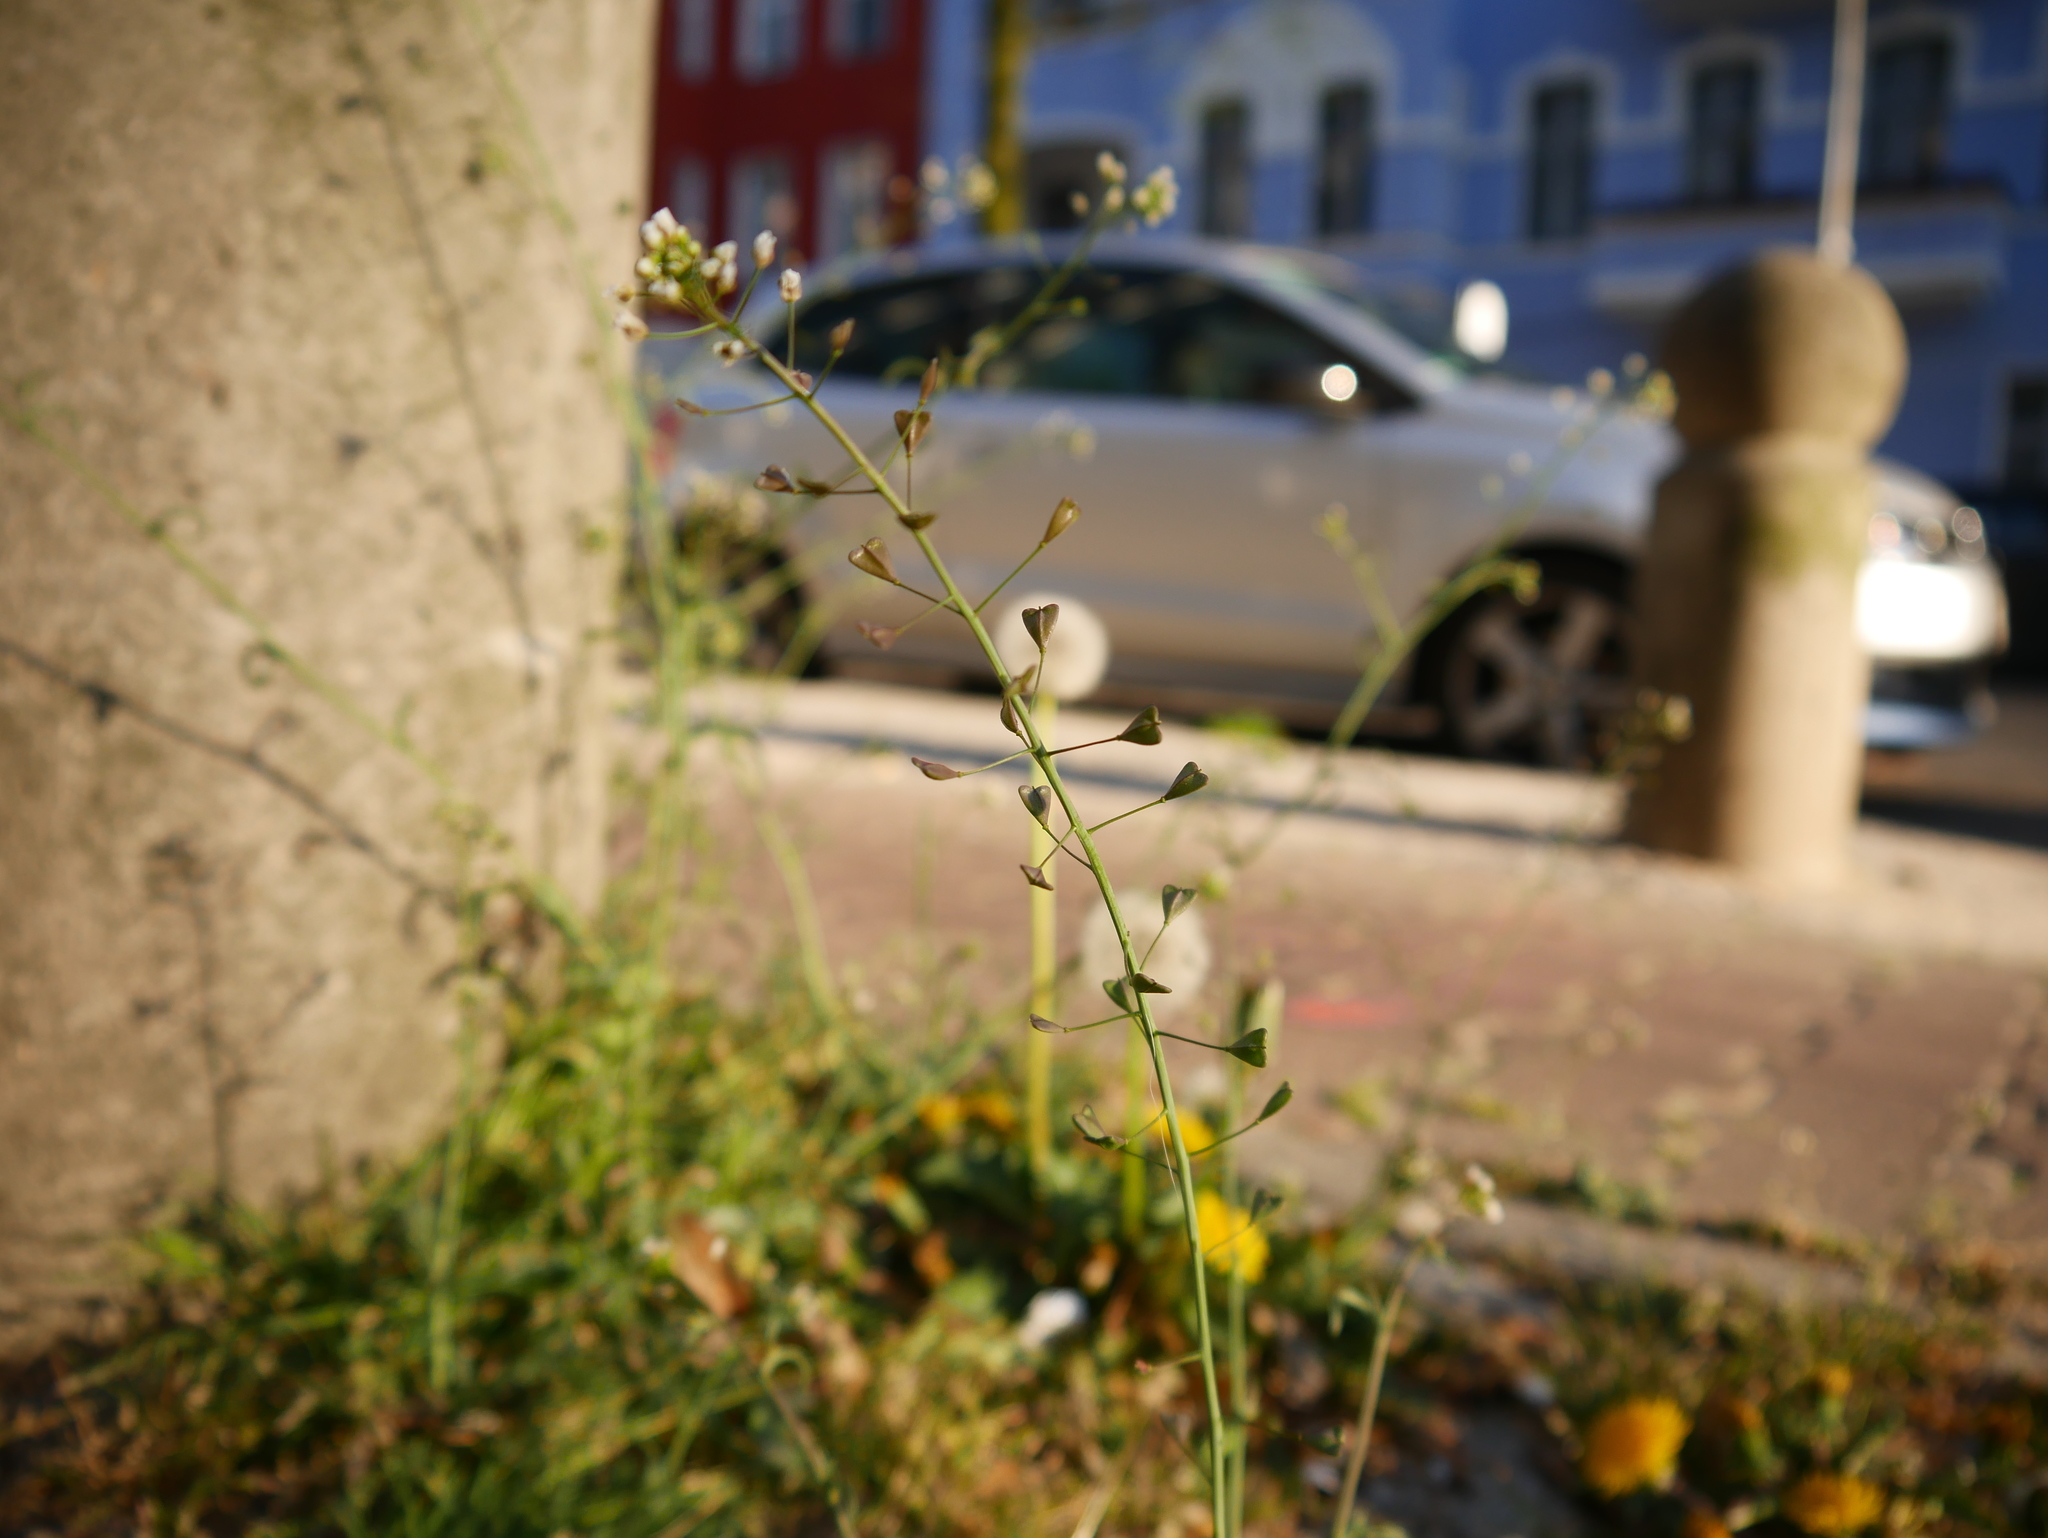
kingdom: Plantae
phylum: Tracheophyta
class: Magnoliopsida
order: Brassicales
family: Brassicaceae
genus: Capsella
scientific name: Capsella bursa-pastoris
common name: Shepherd's purse
